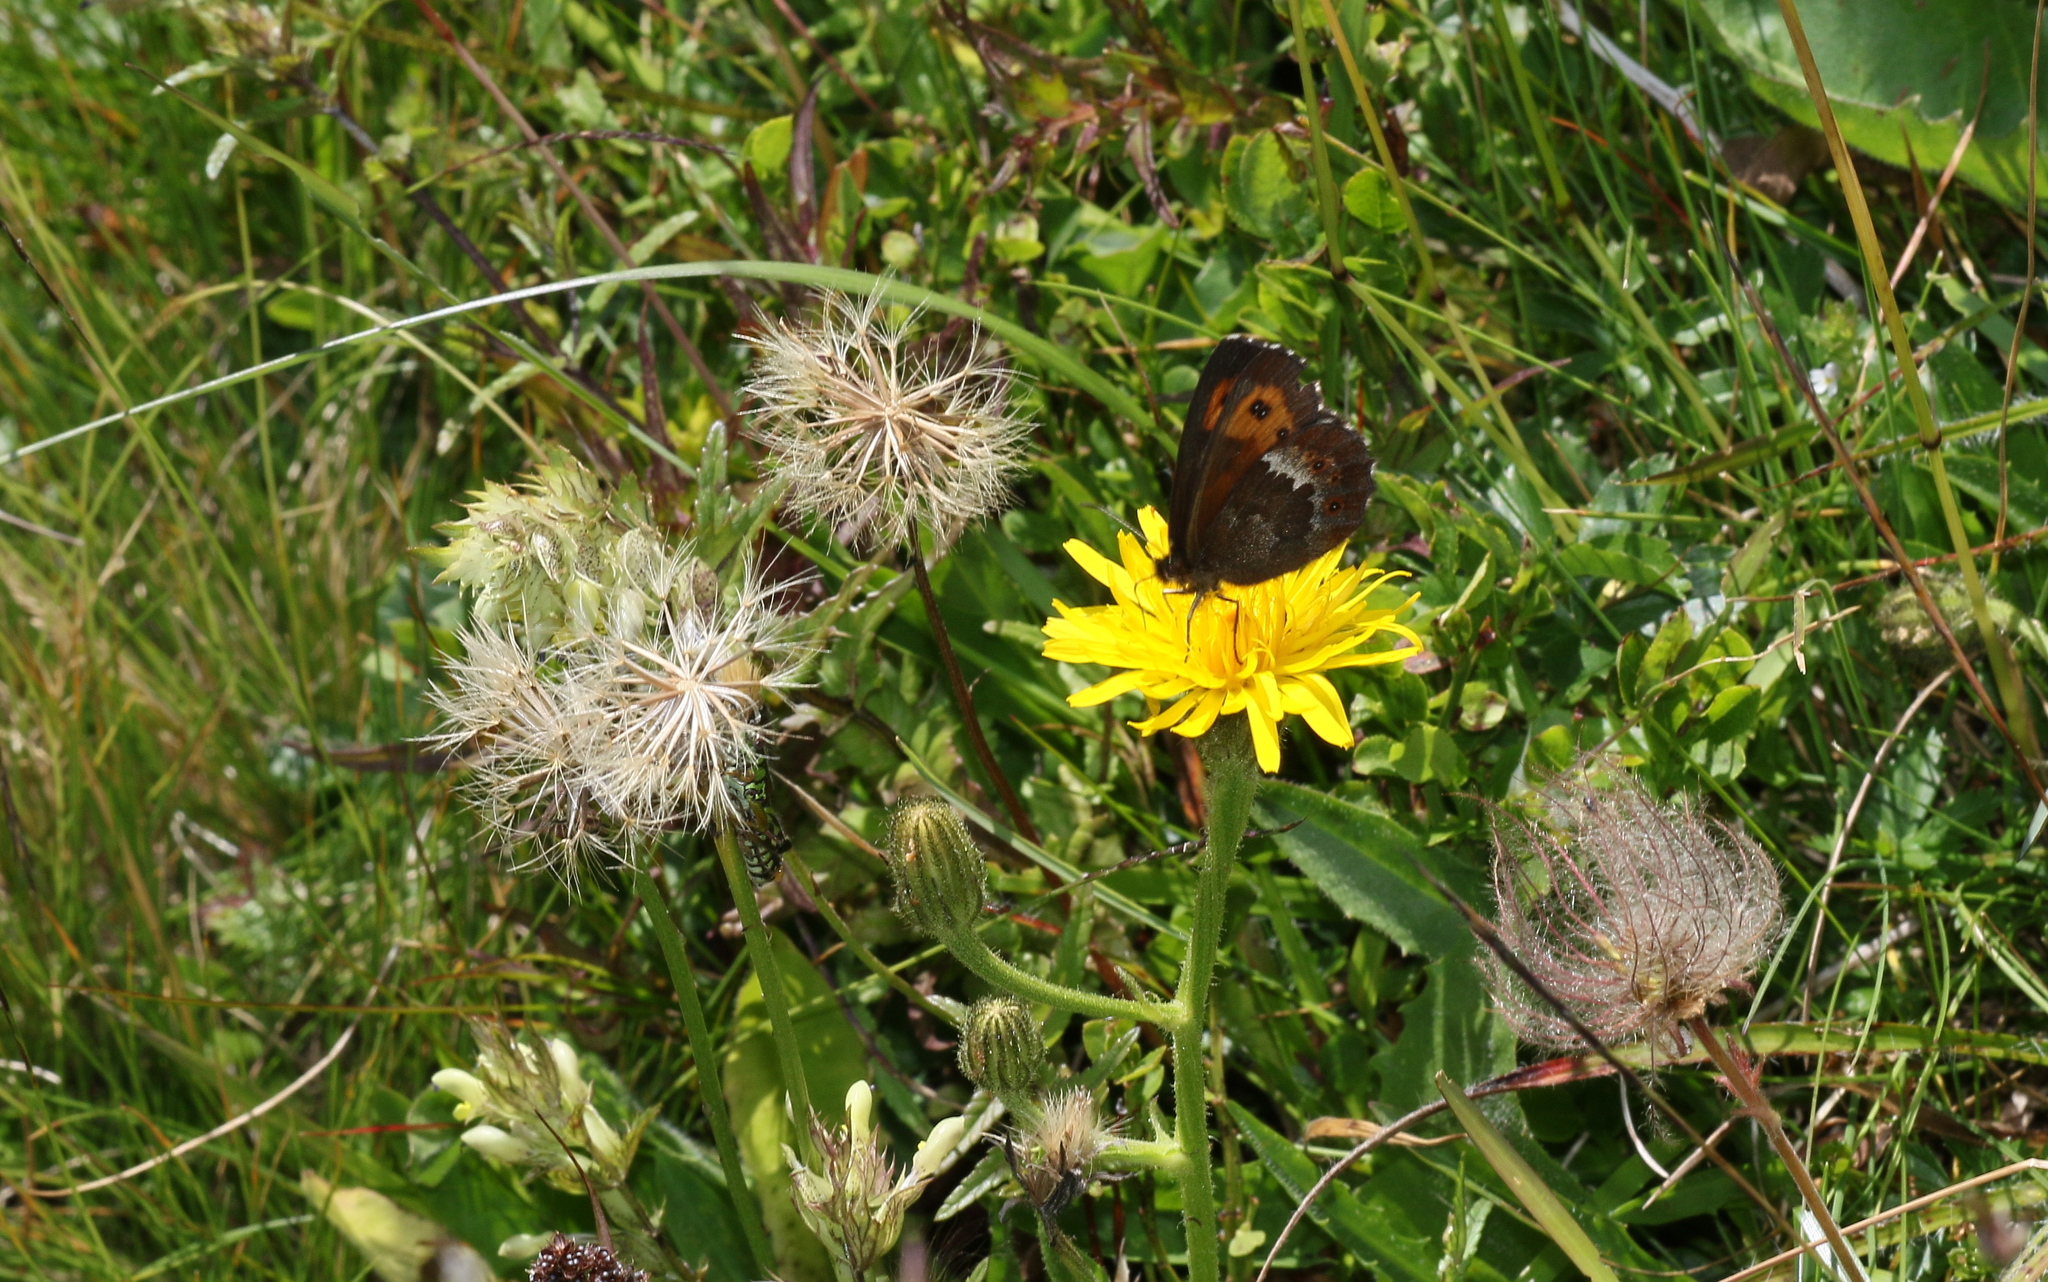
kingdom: Animalia
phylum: Arthropoda
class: Insecta
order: Lepidoptera
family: Nymphalidae
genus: Erebia
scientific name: Erebia euryale
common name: Large ringlet
